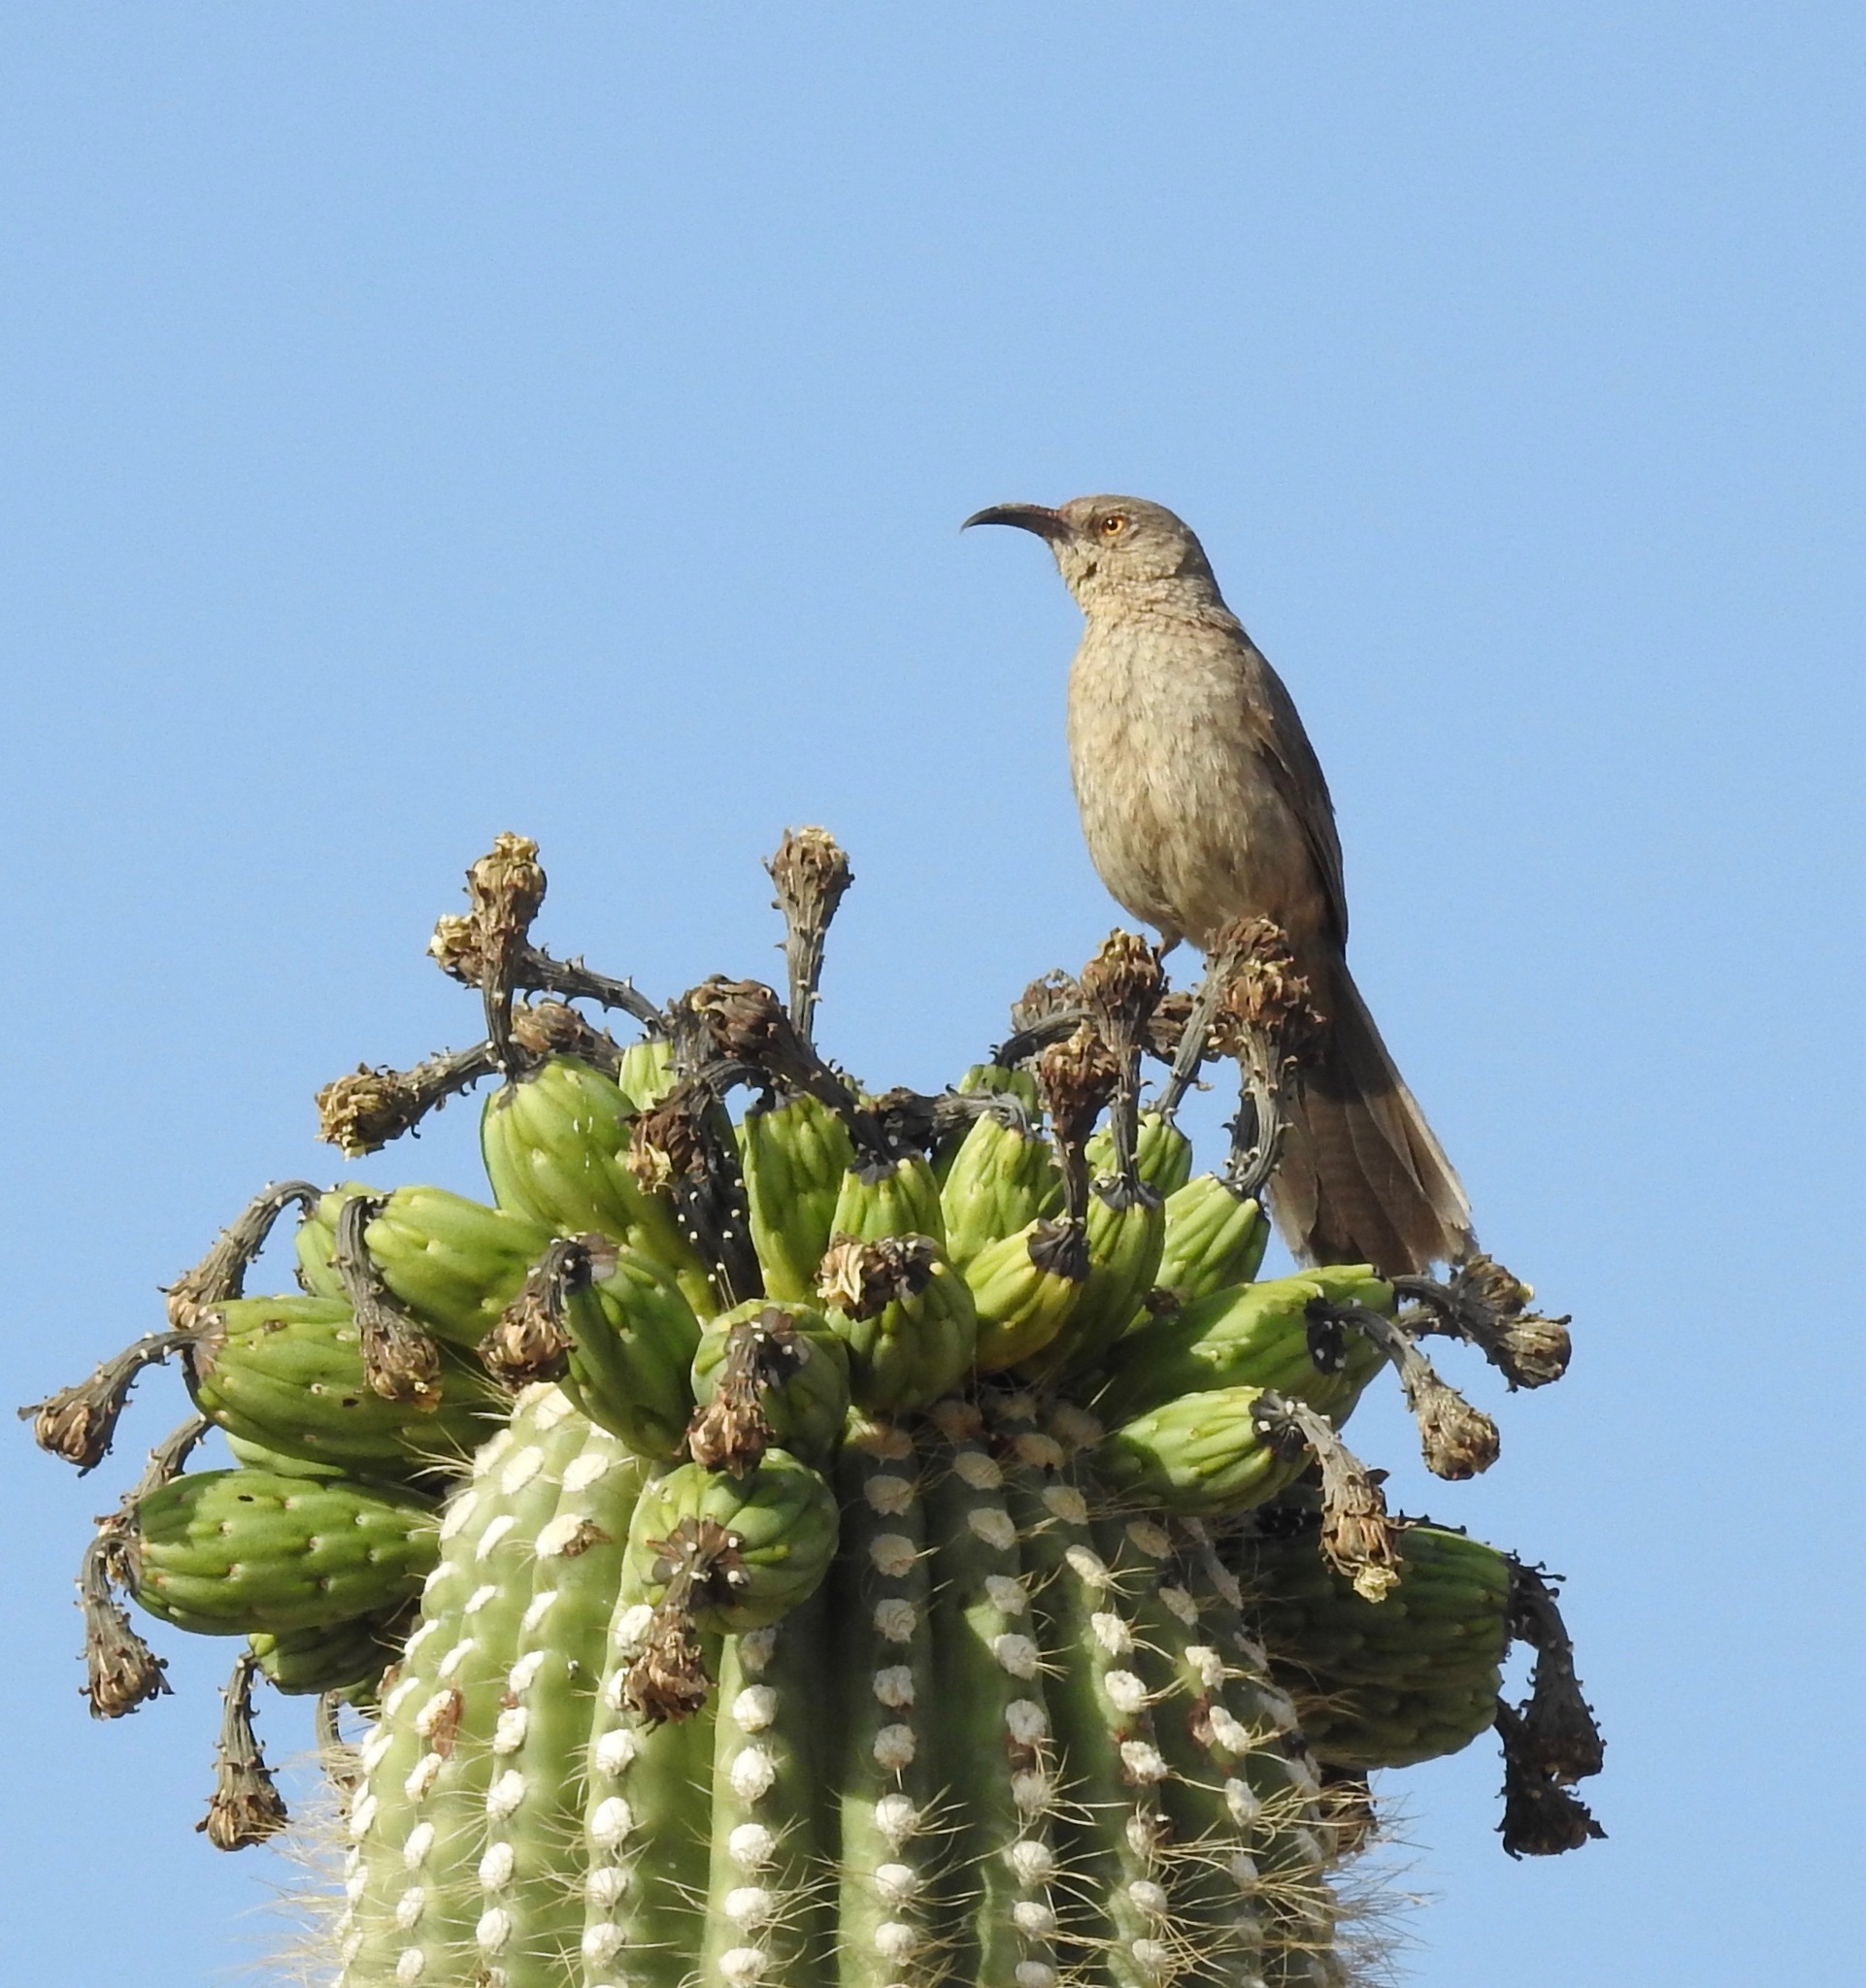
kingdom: Animalia
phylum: Chordata
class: Aves
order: Passeriformes
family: Mimidae
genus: Toxostoma
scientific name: Toxostoma curvirostre
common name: Curve-billed thrasher
